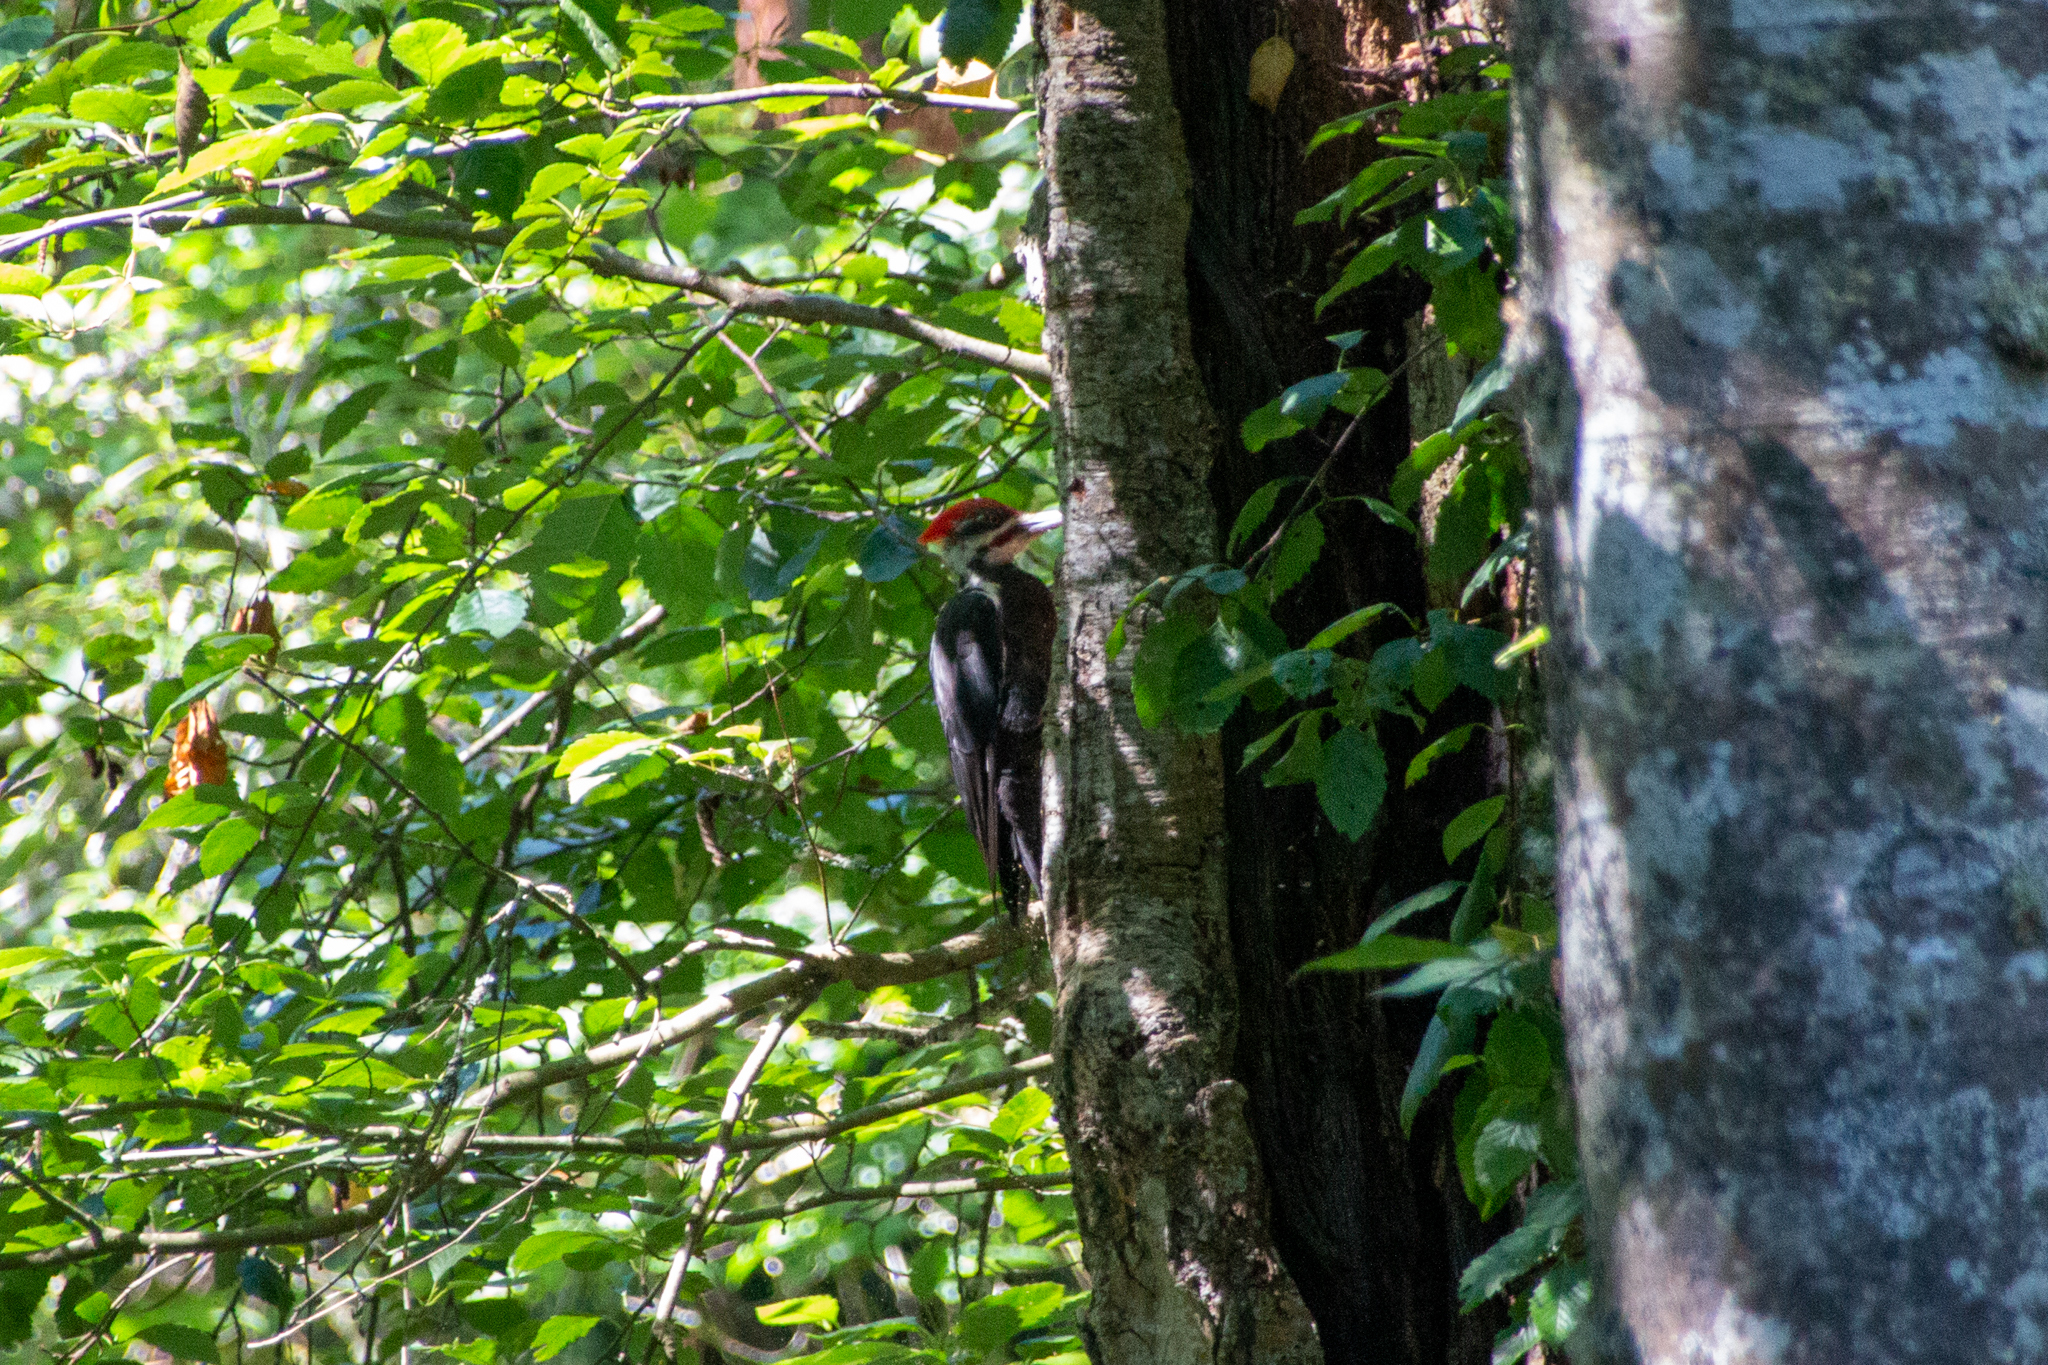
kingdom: Animalia
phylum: Chordata
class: Aves
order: Piciformes
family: Picidae
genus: Dryocopus
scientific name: Dryocopus pileatus
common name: Pileated woodpecker
